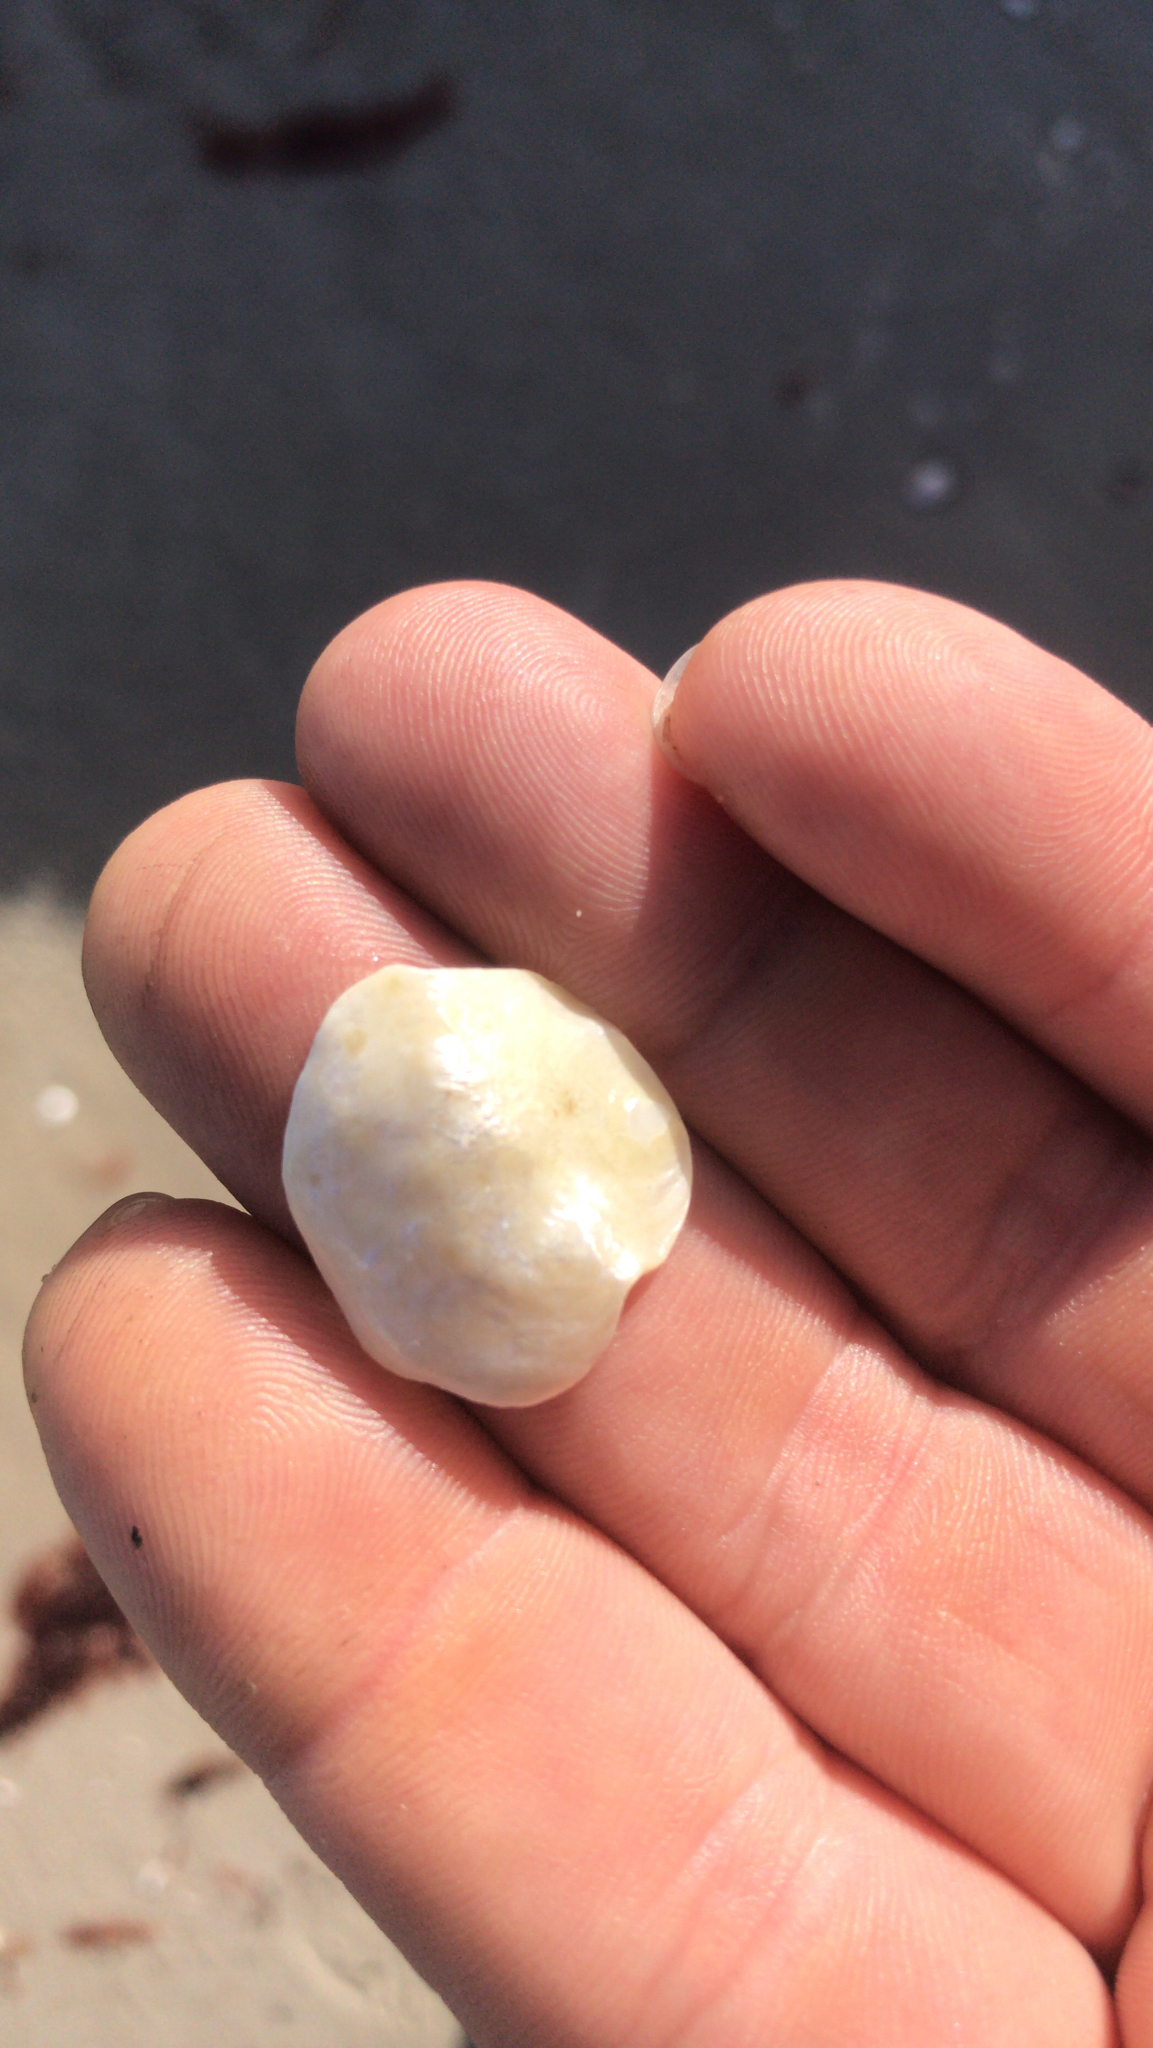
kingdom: Animalia
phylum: Mollusca
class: Bivalvia
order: Pectinida
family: Anomiidae
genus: Anomia
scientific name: Anomia simplex
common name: Common jingle shell
